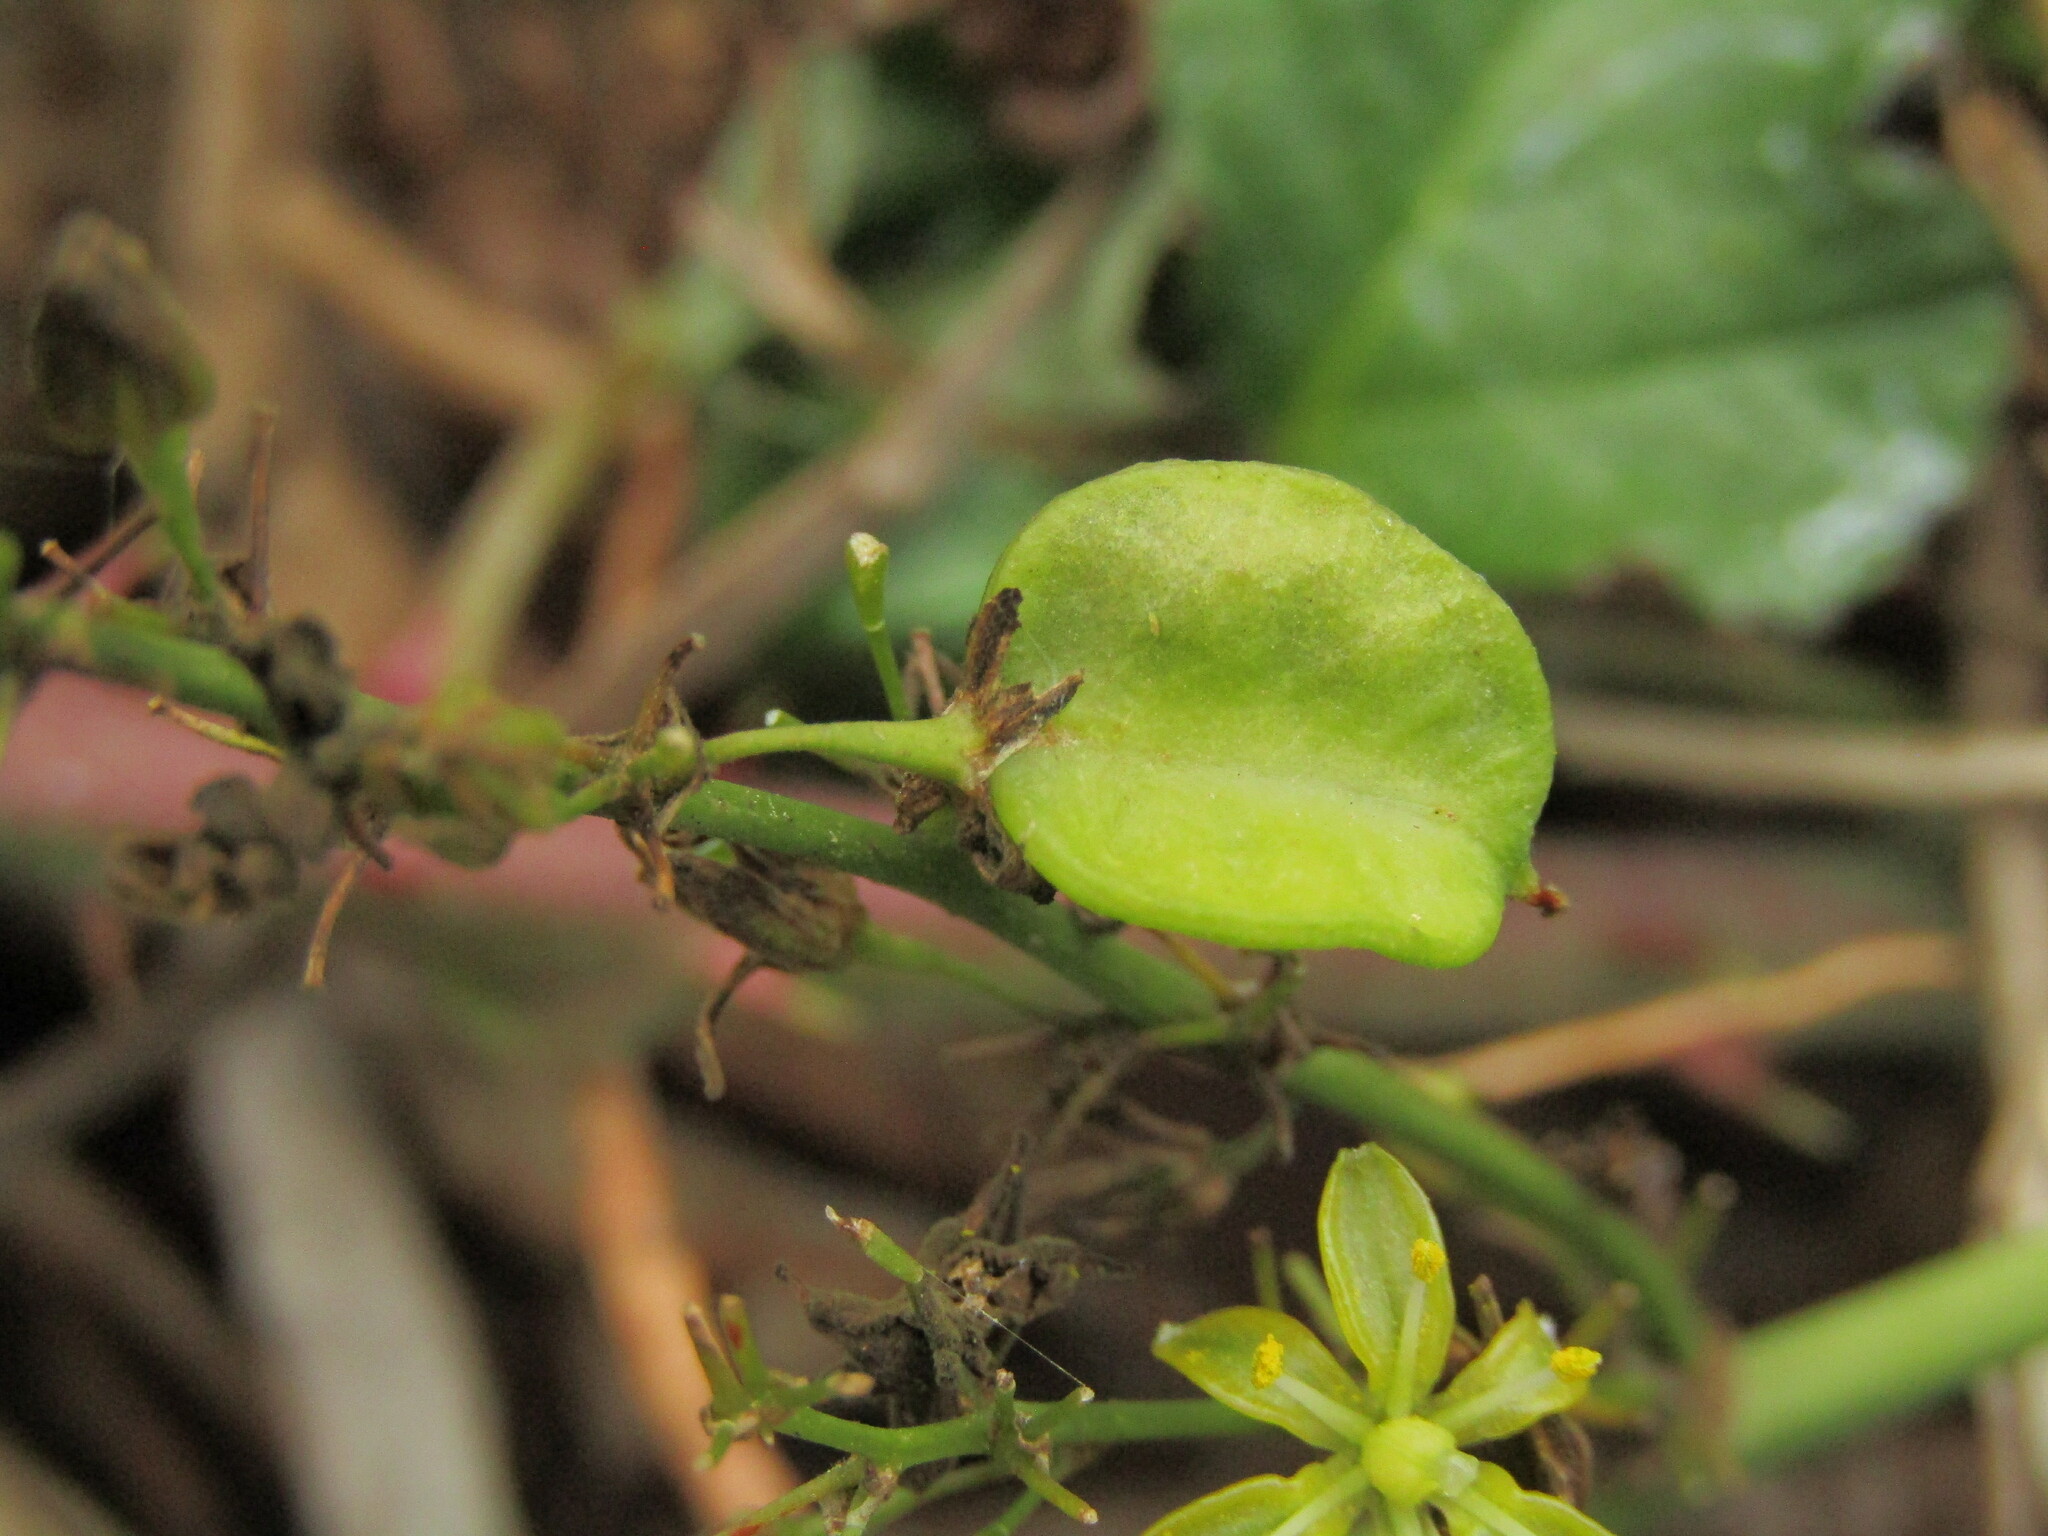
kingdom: Plantae
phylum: Tracheophyta
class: Liliopsida
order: Asparagales
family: Asparagaceae
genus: Herreria
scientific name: Herreria stellata
